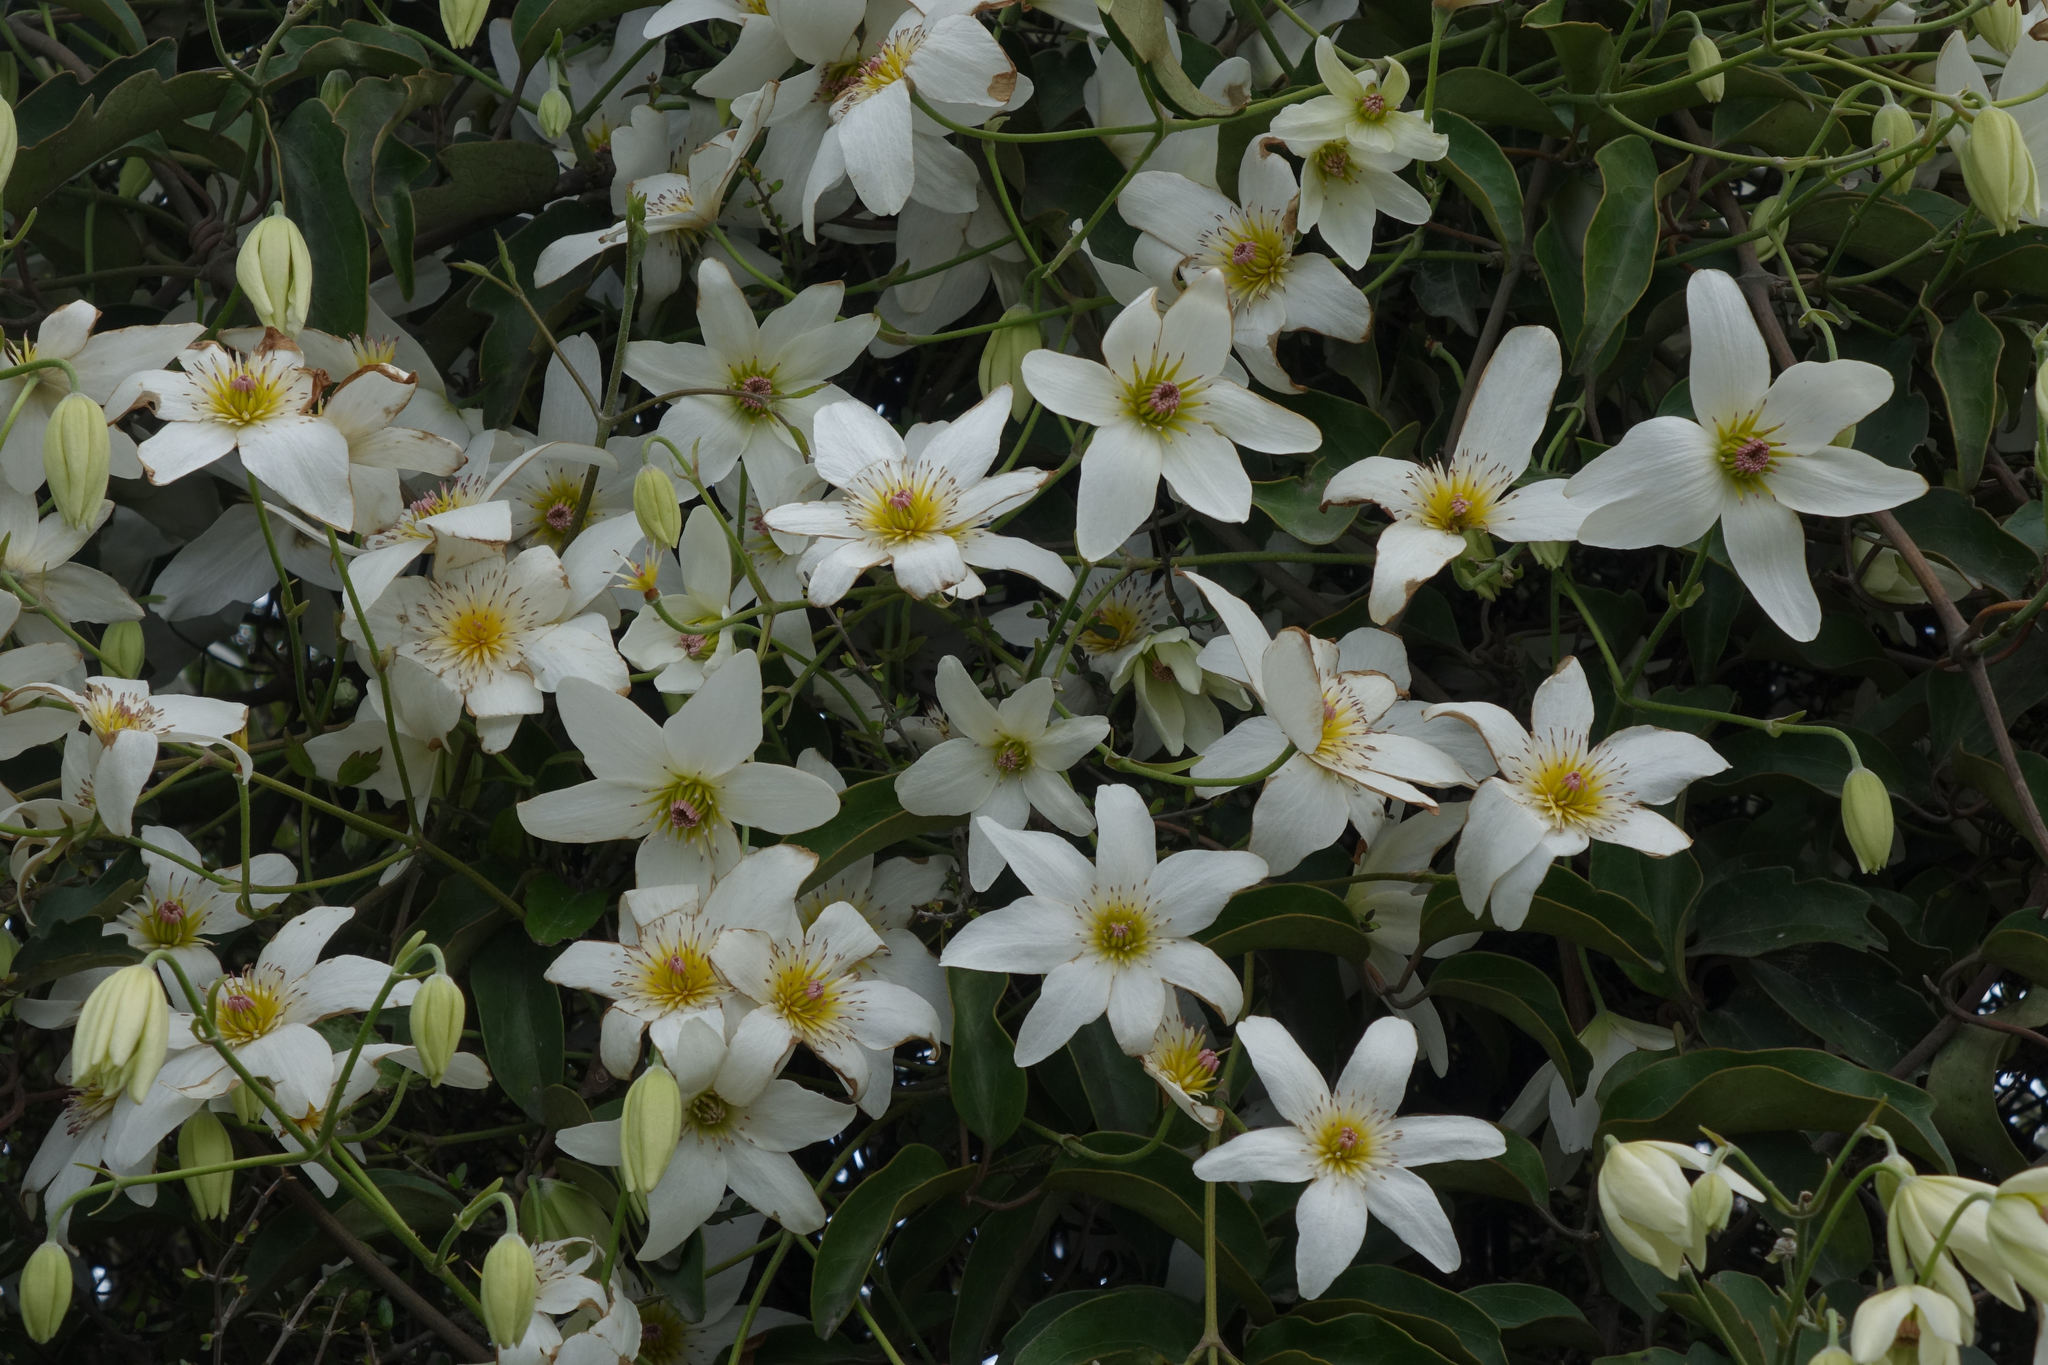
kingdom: Plantae
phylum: Tracheophyta
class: Magnoliopsida
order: Ranunculales
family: Ranunculaceae
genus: Clematis
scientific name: Clematis paniculata
